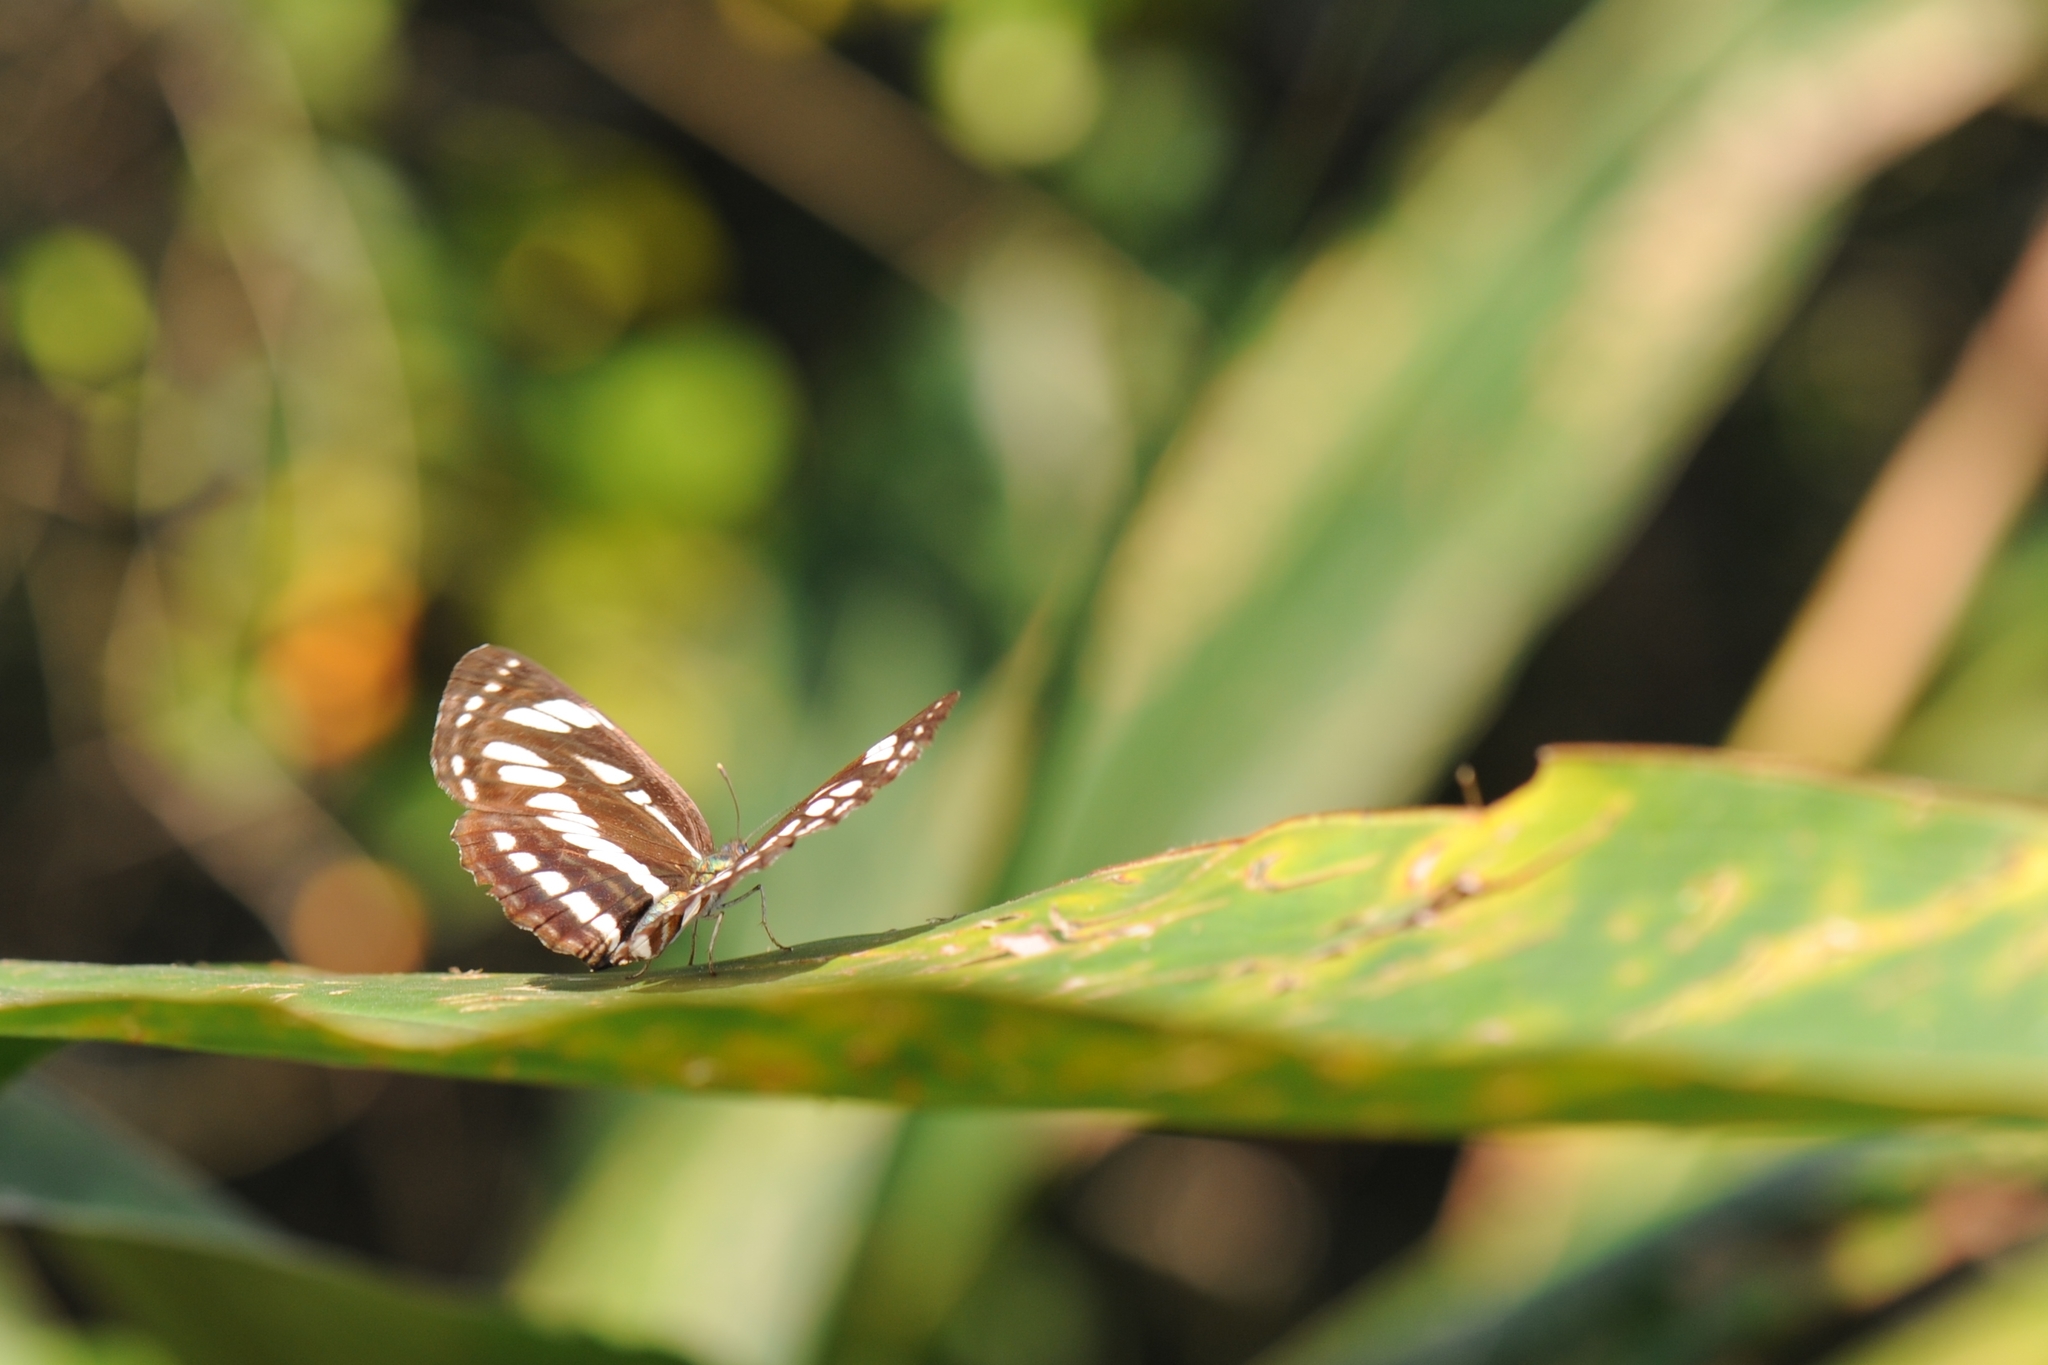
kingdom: Animalia
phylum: Arthropoda
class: Insecta
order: Lepidoptera
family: Nymphalidae
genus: Neptis
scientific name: Neptis hylas
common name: Common sailer
